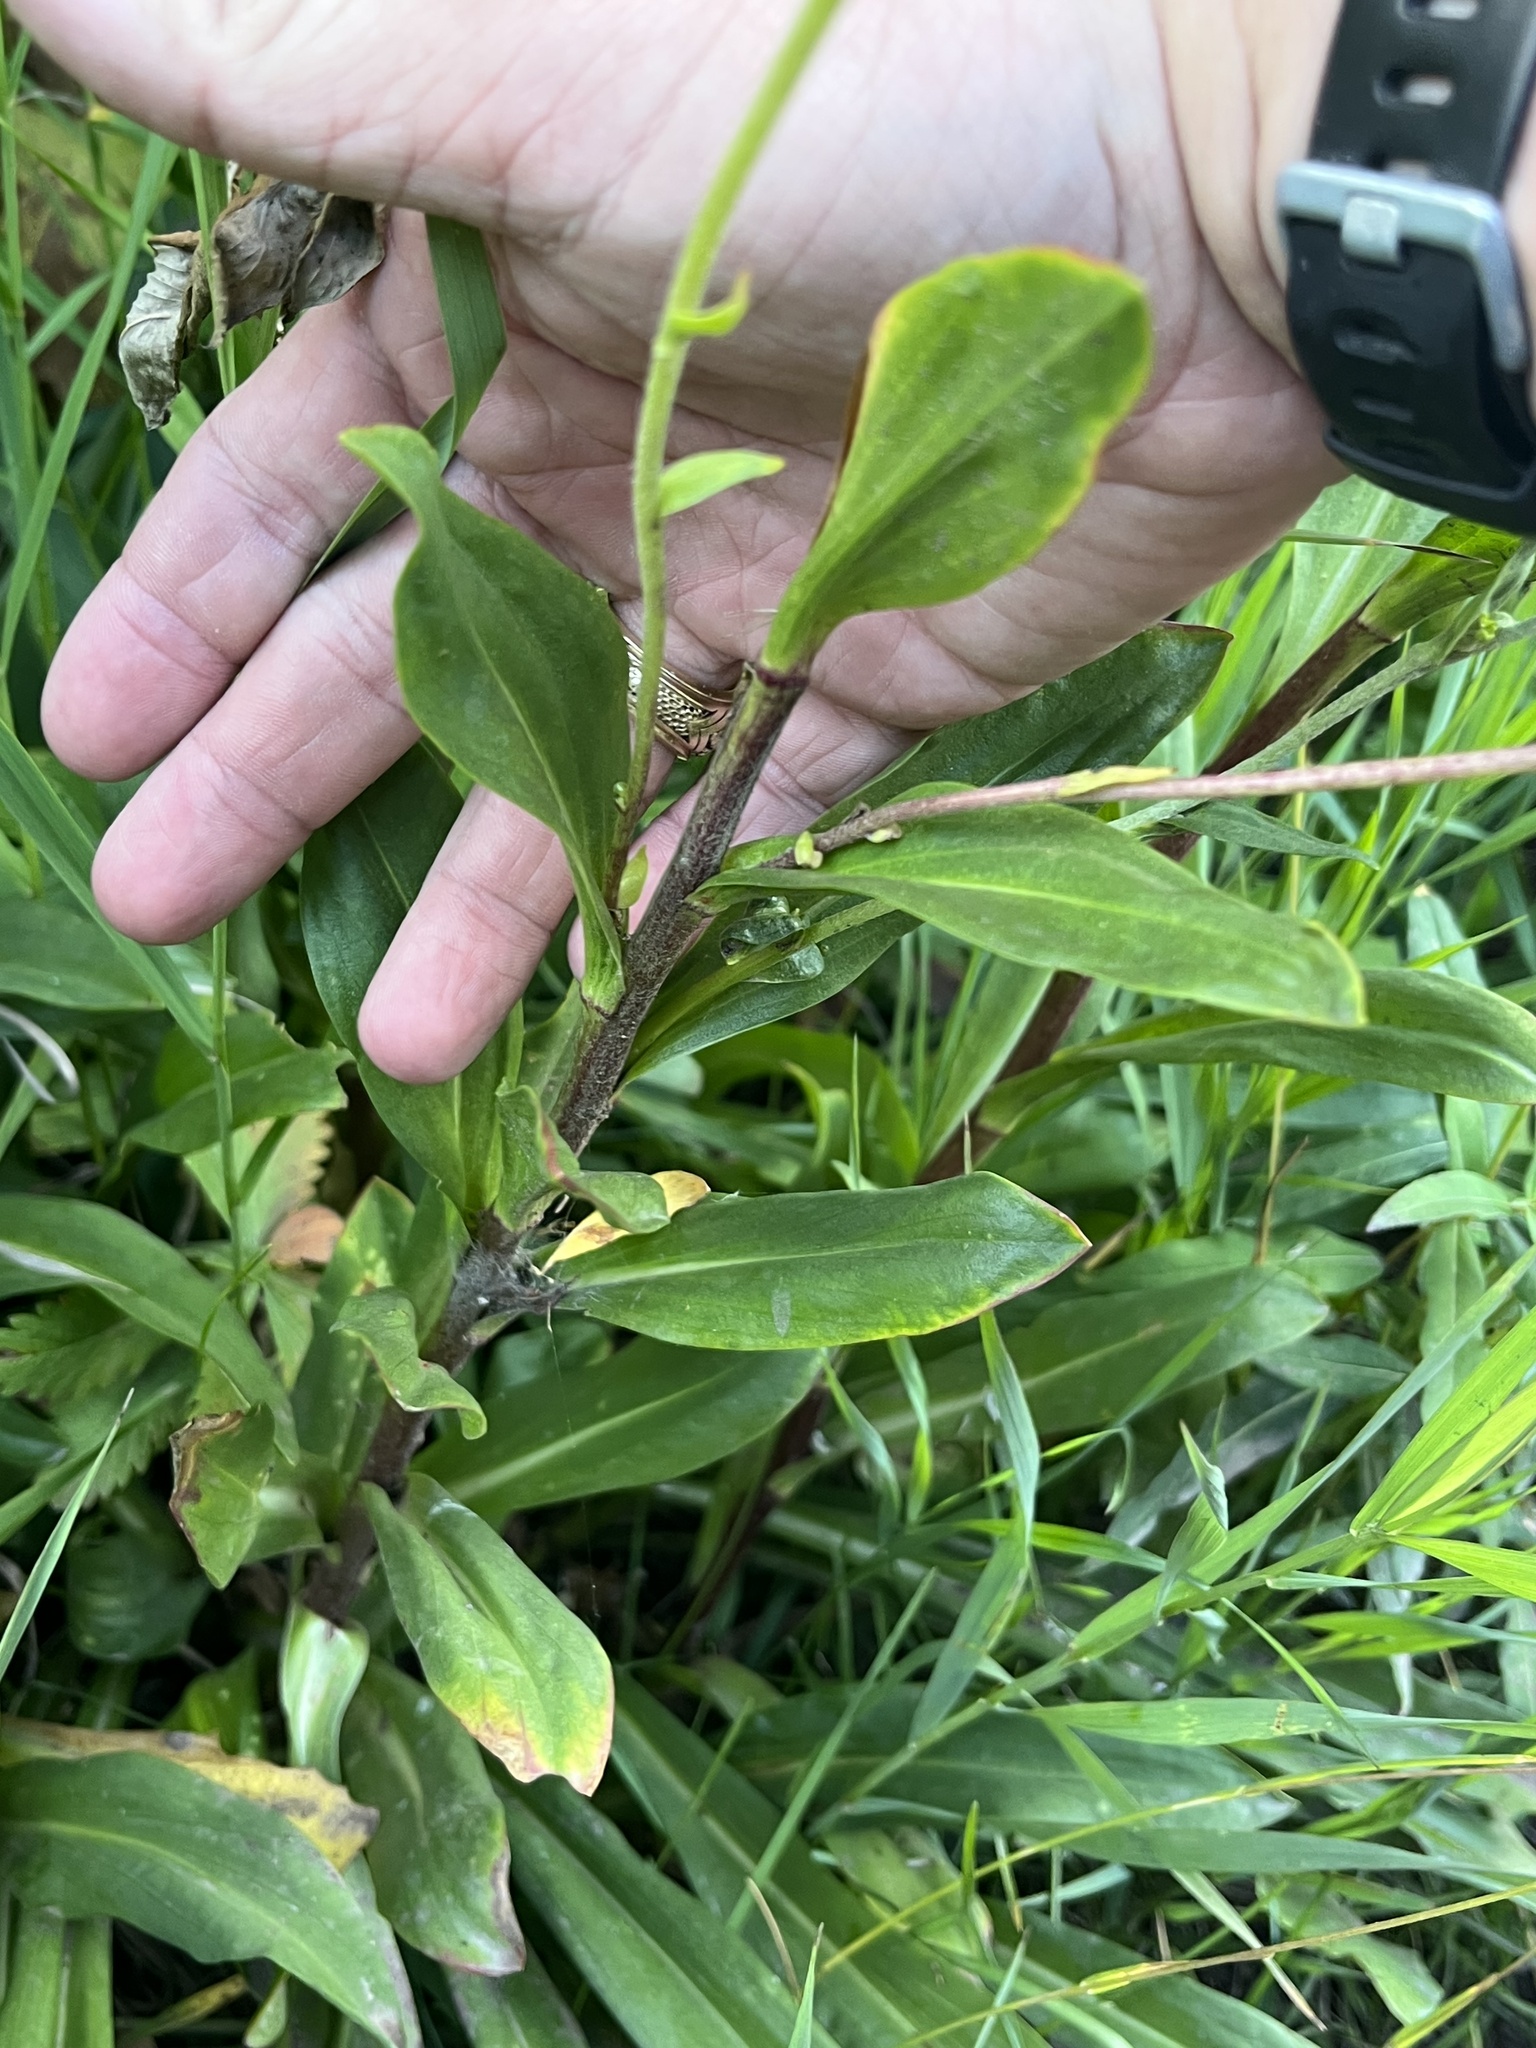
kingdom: Plantae
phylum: Tracheophyta
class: Magnoliopsida
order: Asterales
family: Asteraceae
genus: Hymenoxys
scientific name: Hymenoxys hoopesii
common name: Orange-sneezeweed
